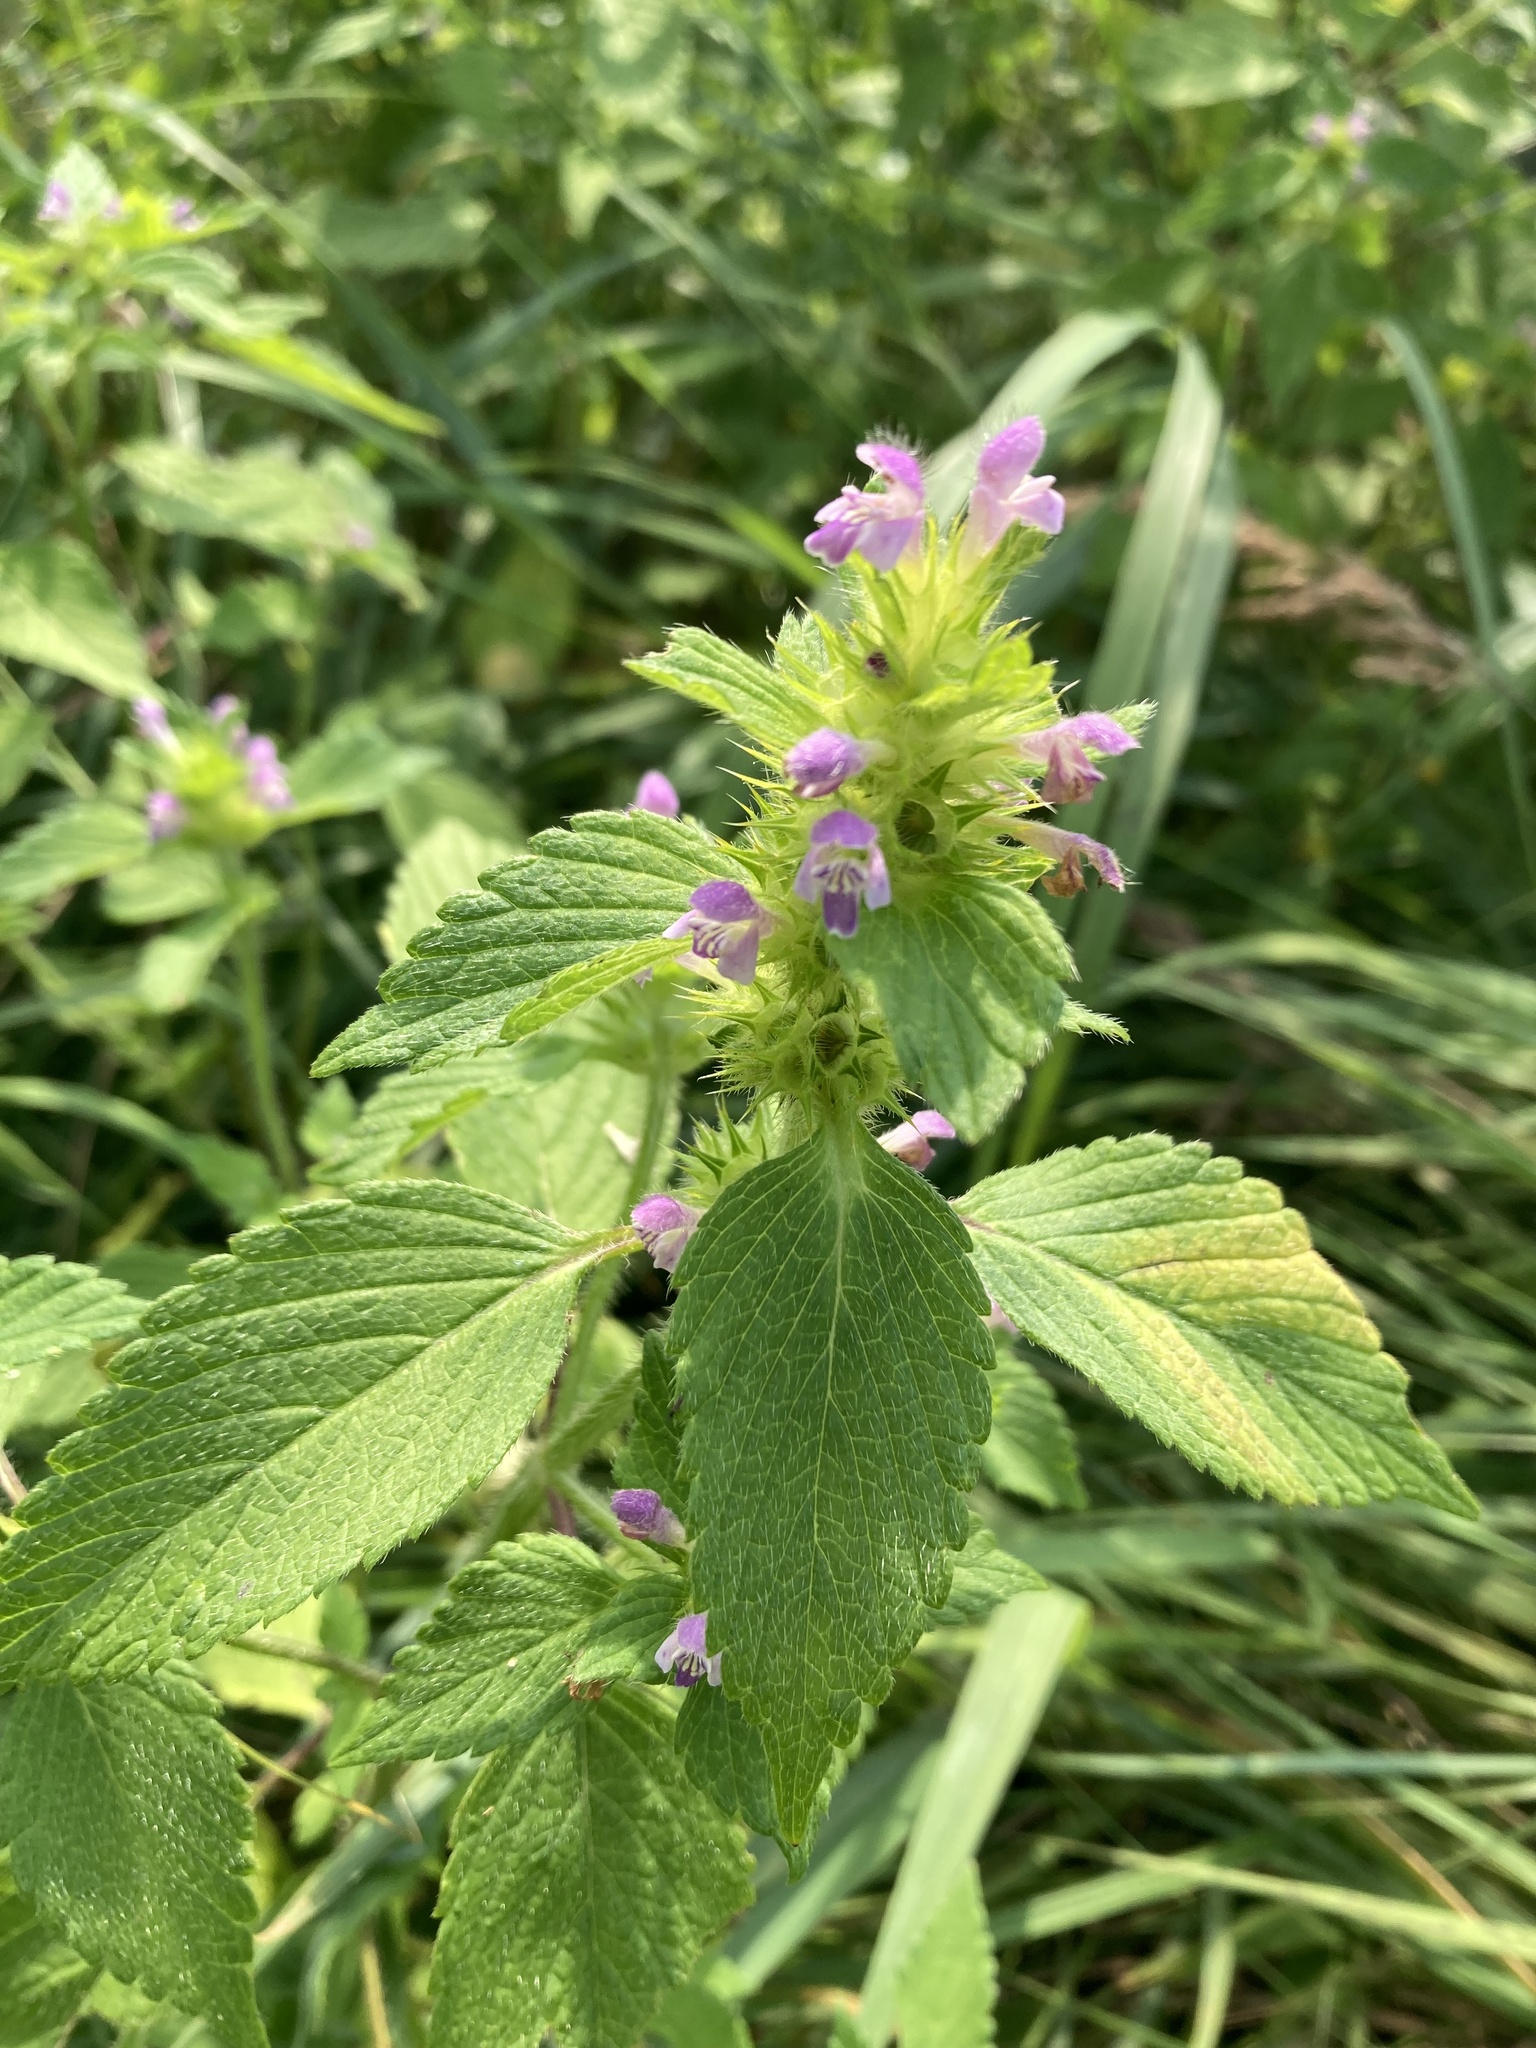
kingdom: Plantae
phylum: Tracheophyta
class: Magnoliopsida
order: Lamiales
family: Lamiaceae
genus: Galeopsis
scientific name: Galeopsis bifida
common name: Bifid hemp-nettle
